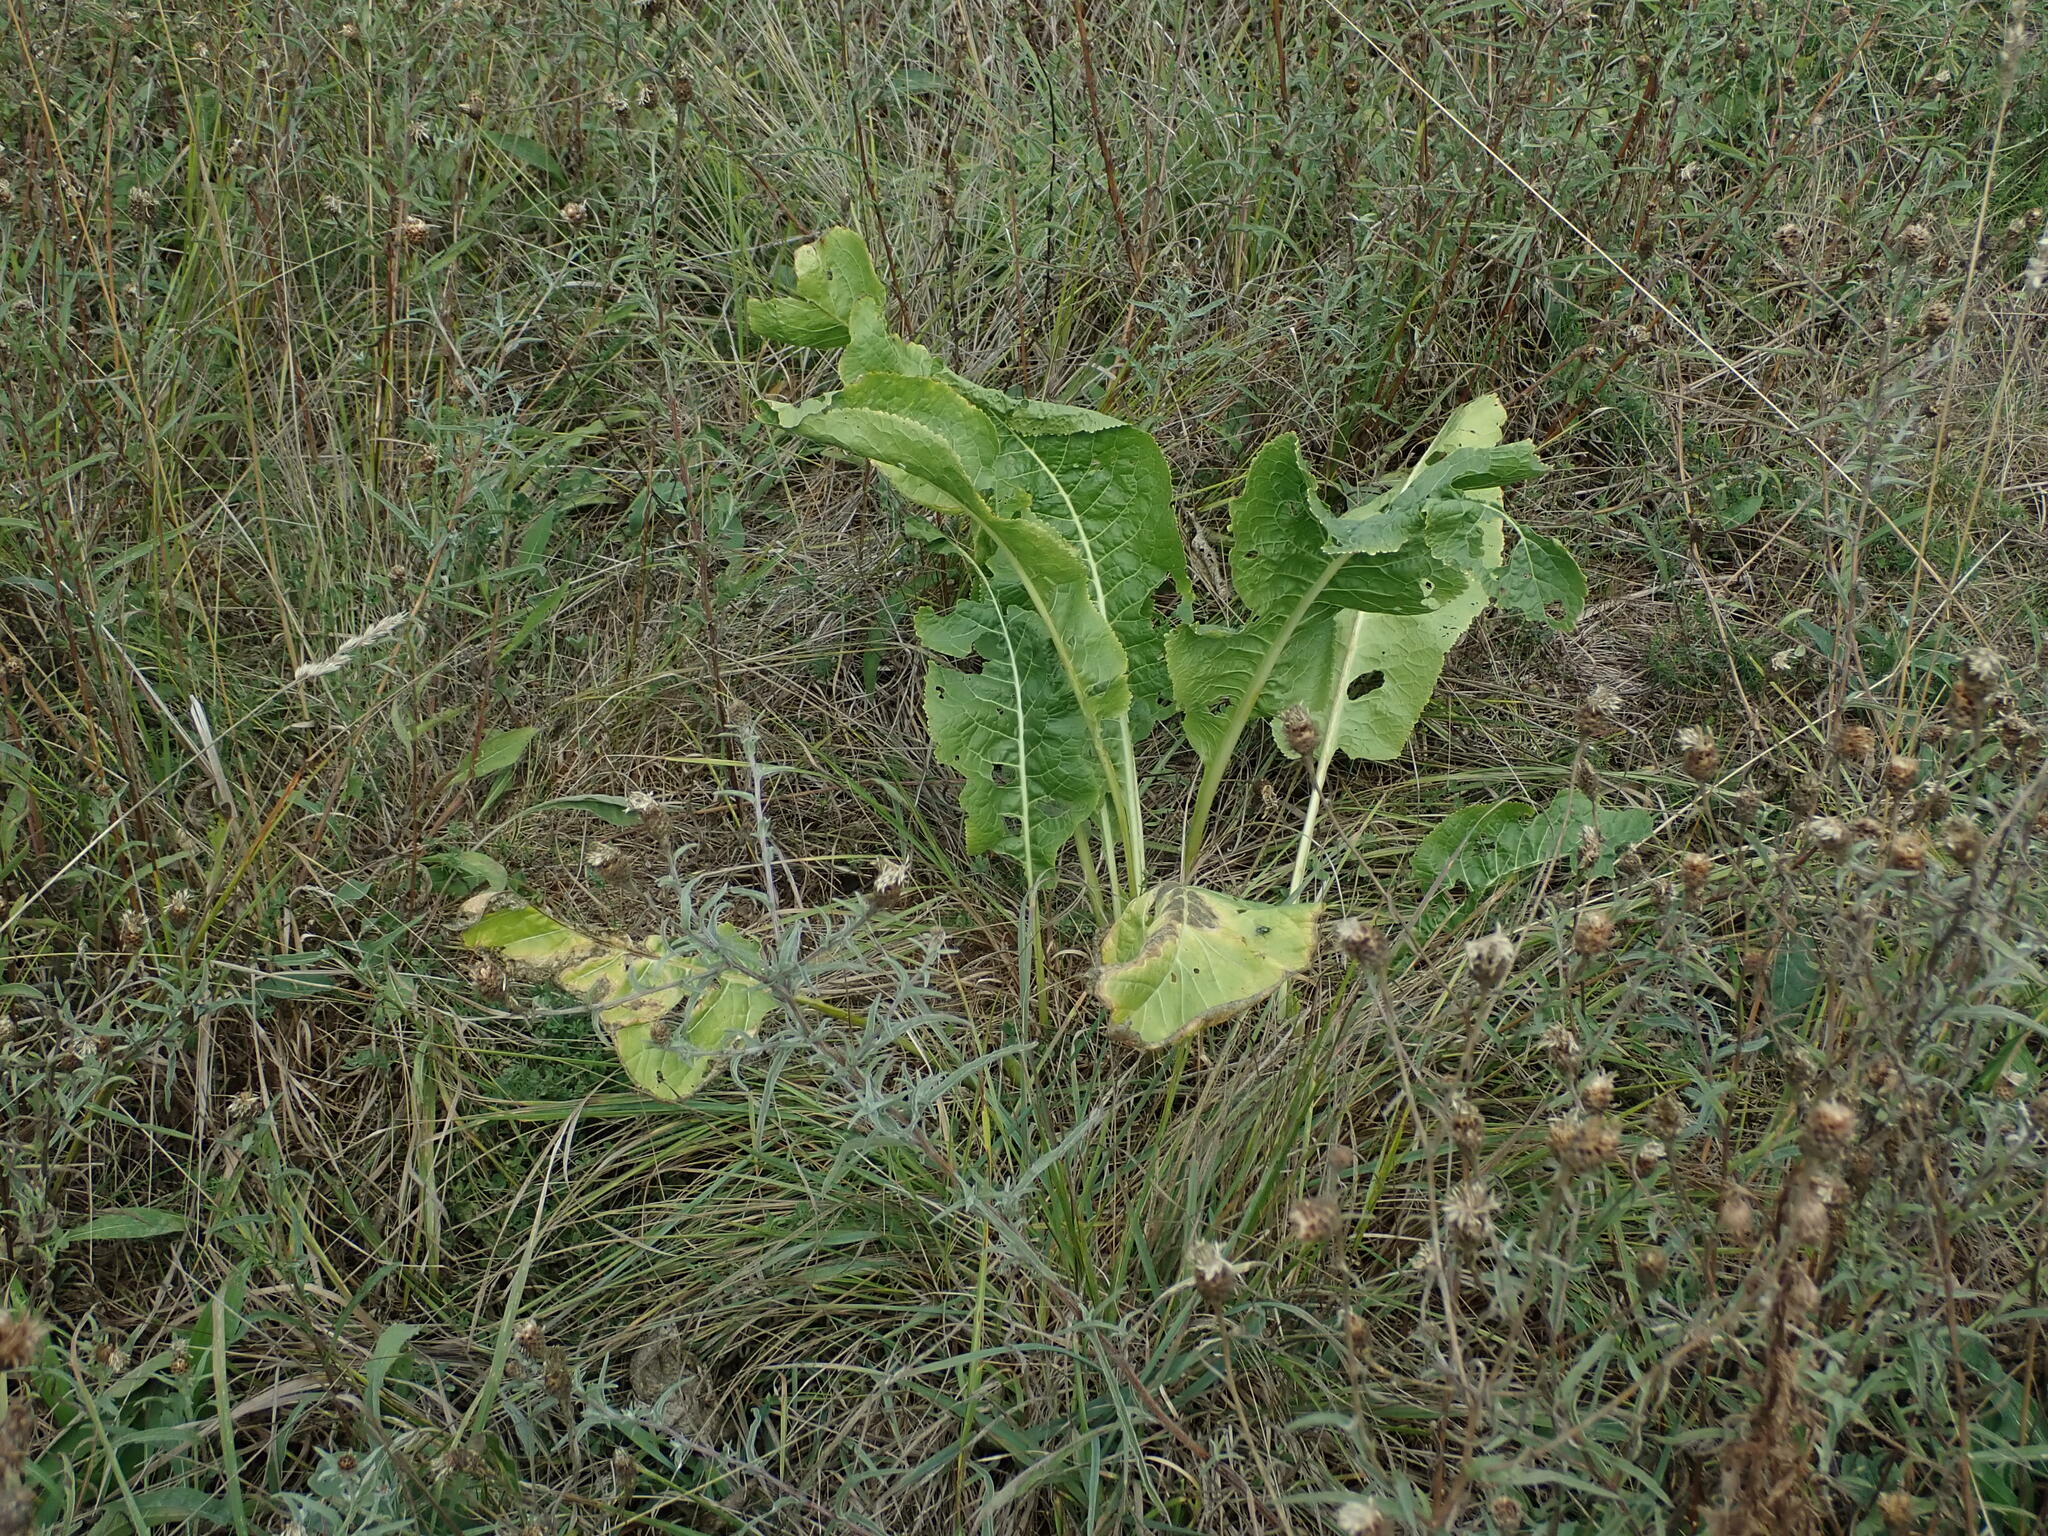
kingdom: Plantae
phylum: Tracheophyta
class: Magnoliopsida
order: Brassicales
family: Brassicaceae
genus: Armoracia
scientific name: Armoracia rusticana
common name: Horseradish
